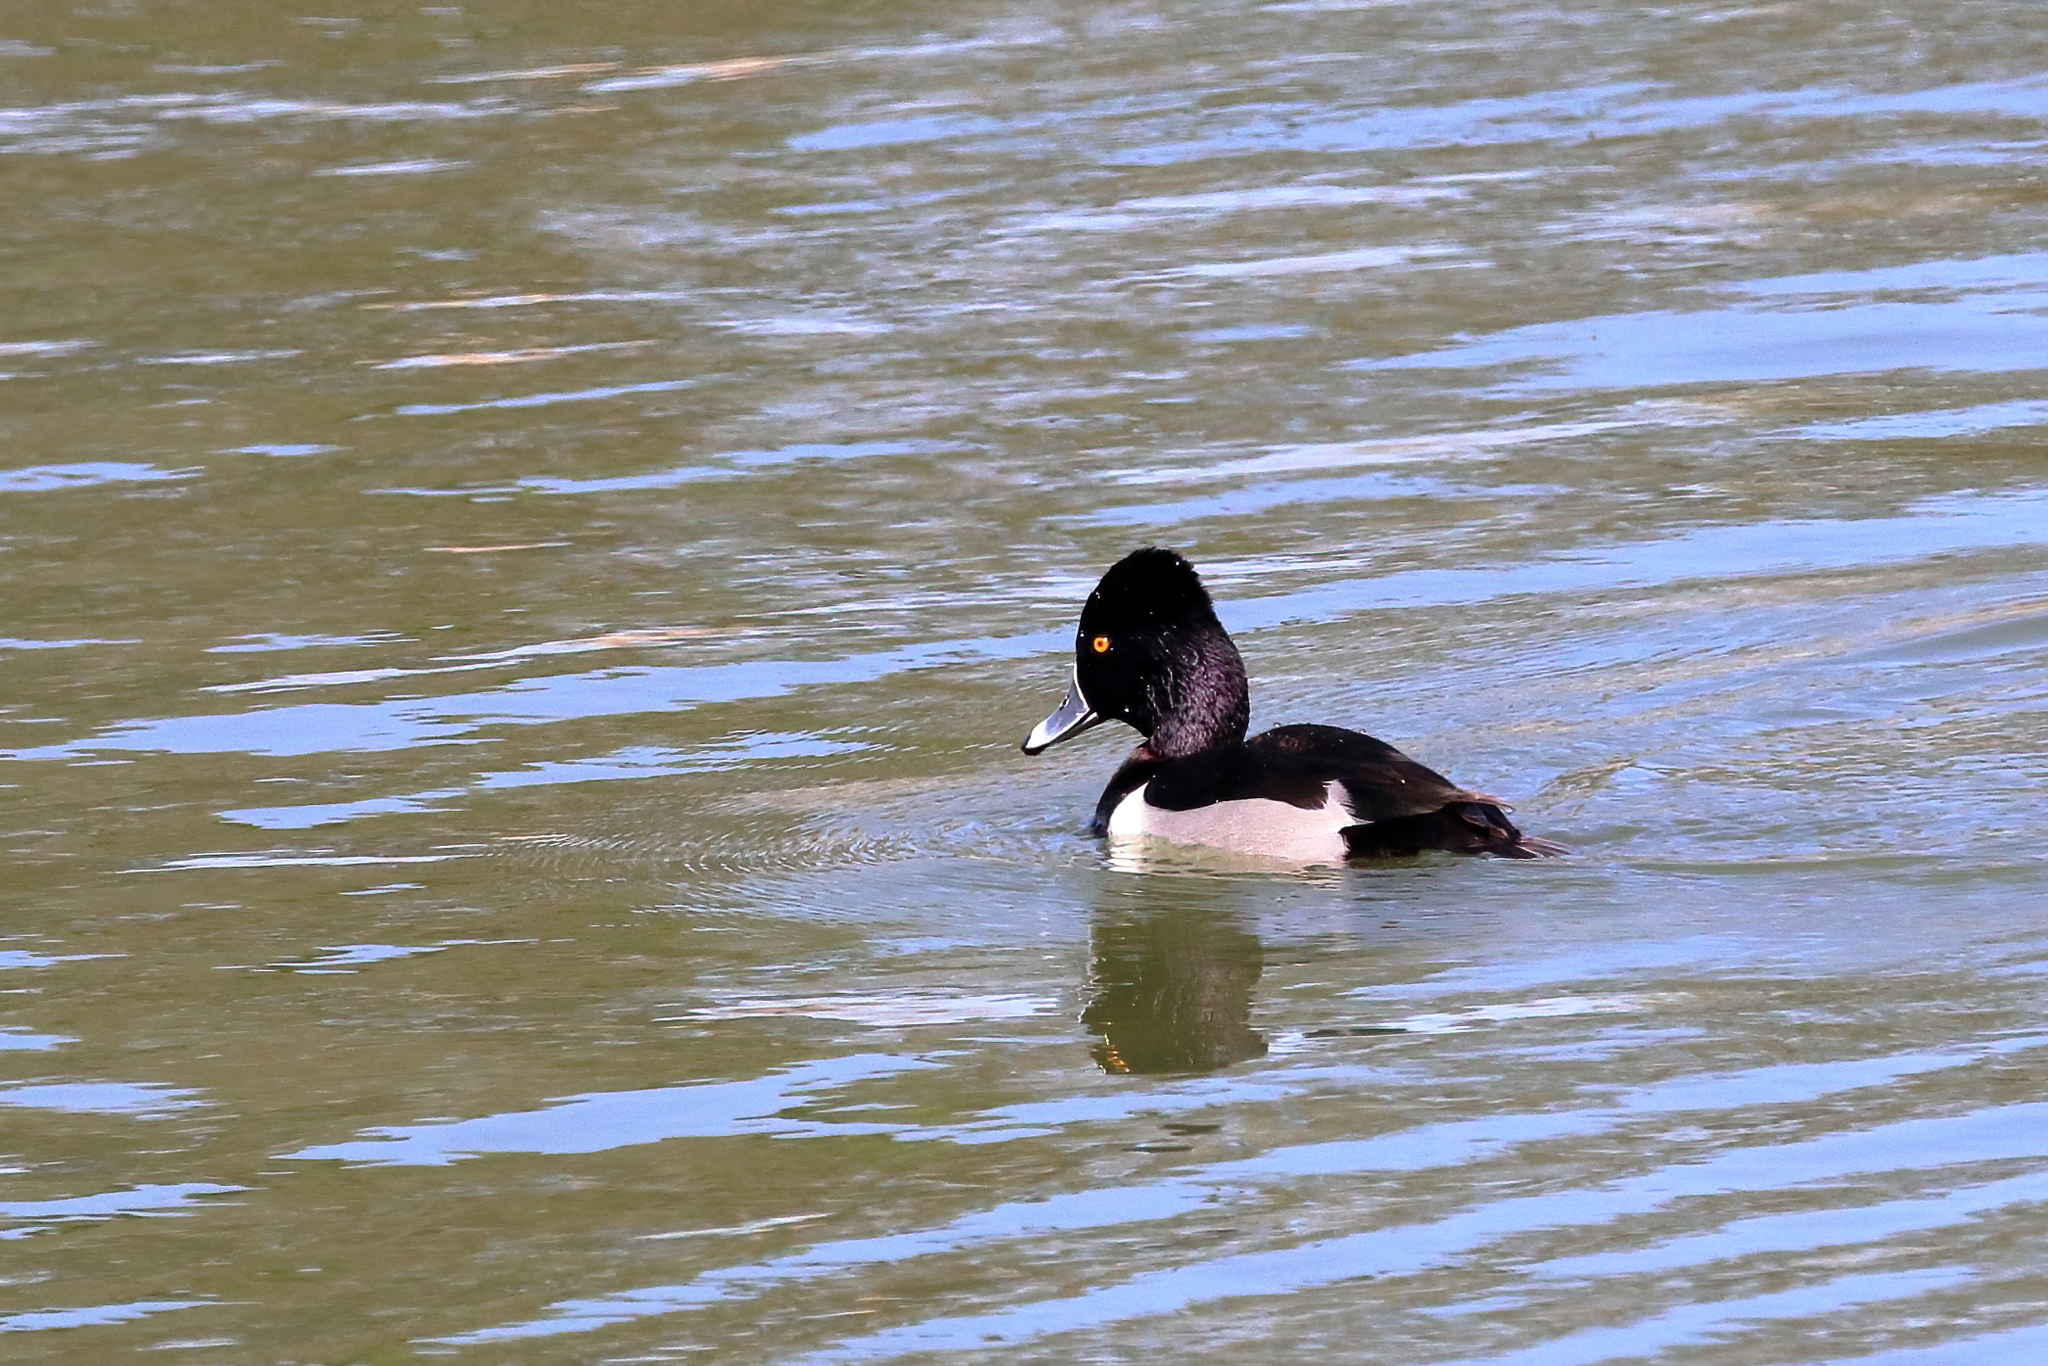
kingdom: Animalia
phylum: Chordata
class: Aves
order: Anseriformes
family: Anatidae
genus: Aythya
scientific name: Aythya collaris
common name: Ring-necked duck
